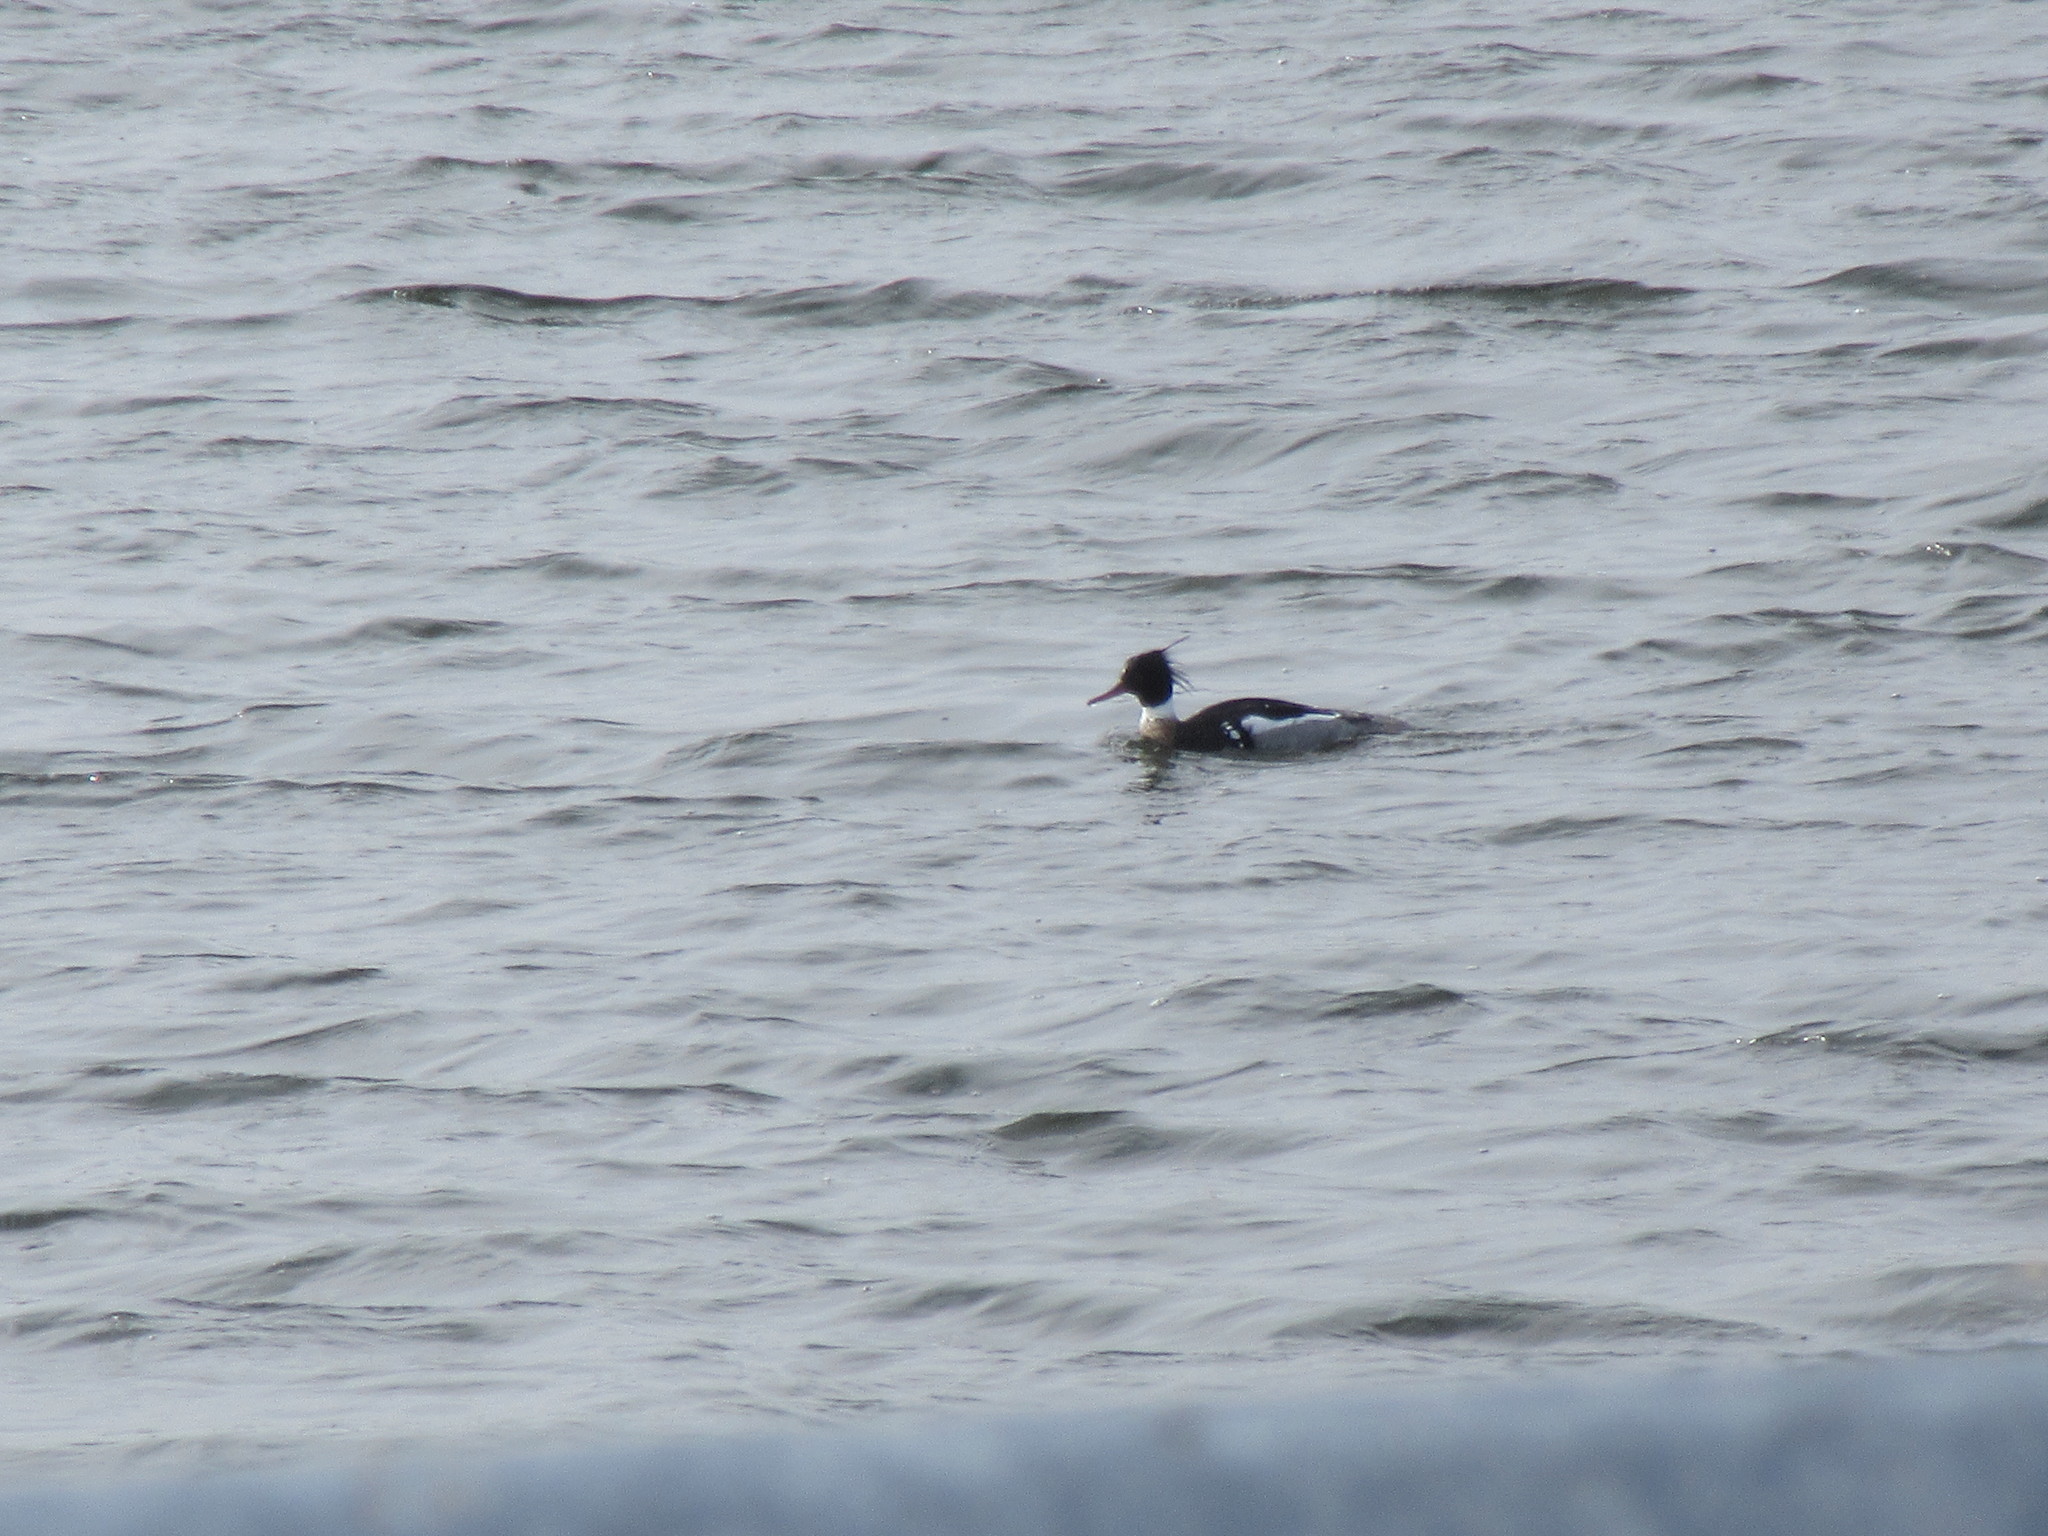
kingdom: Animalia
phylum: Chordata
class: Aves
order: Anseriformes
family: Anatidae
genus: Mergus
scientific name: Mergus serrator
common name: Red-breasted merganser
